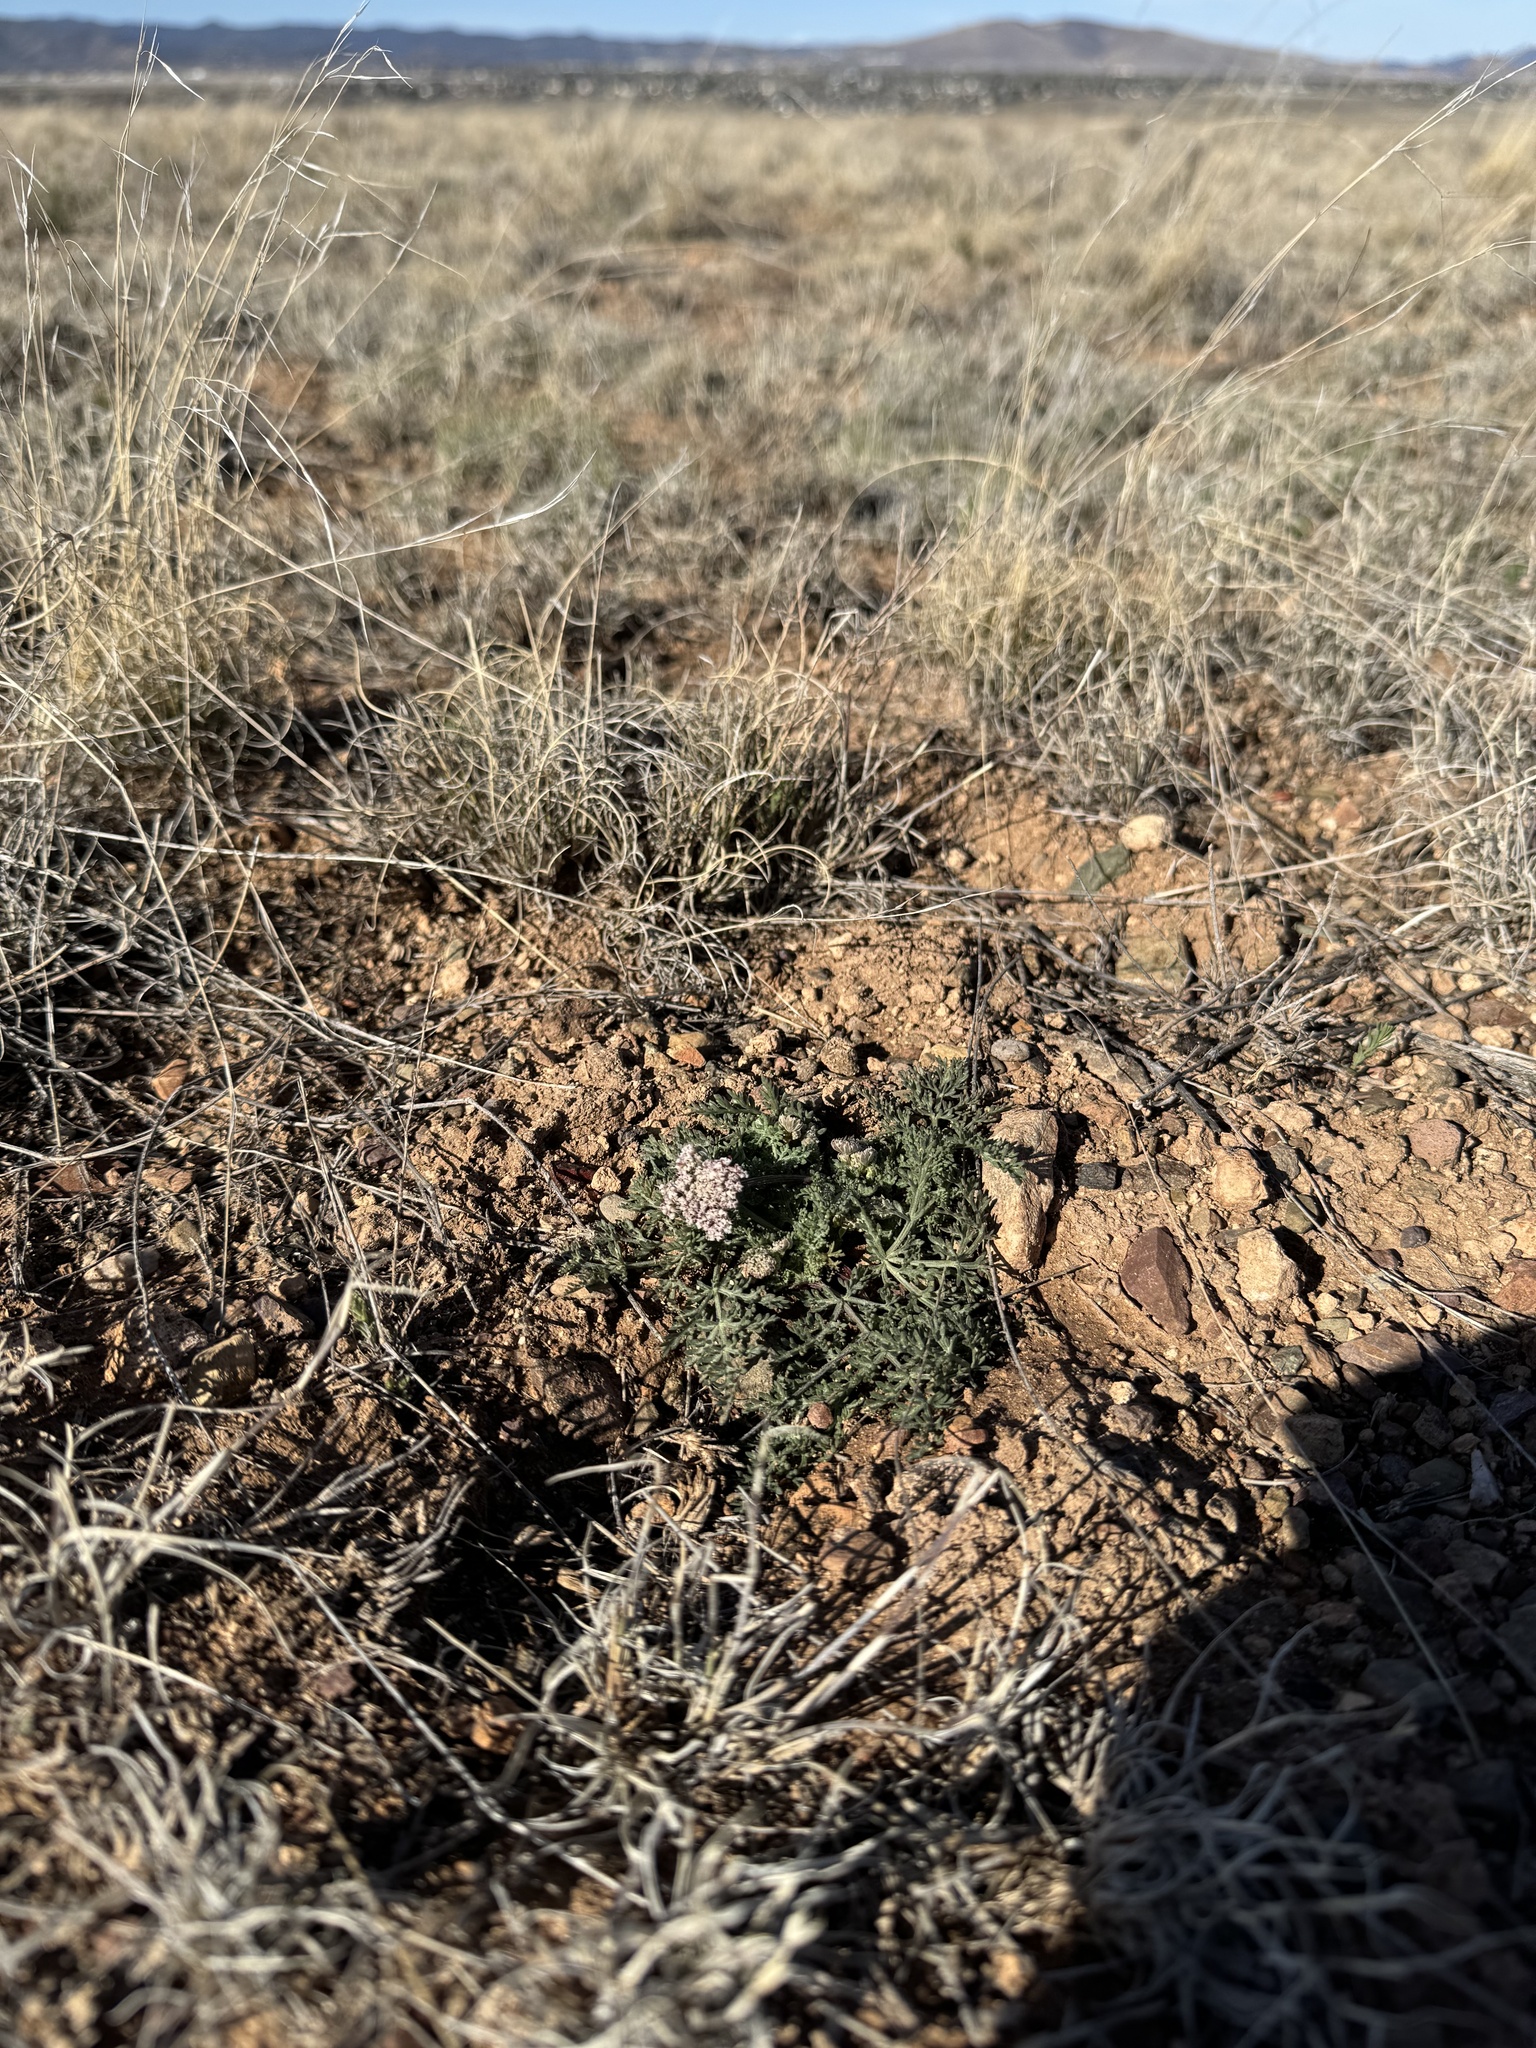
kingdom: Plantae
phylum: Tracheophyta
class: Magnoliopsida
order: Apiales
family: Apiaceae
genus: Lomatium
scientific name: Lomatium nevadense
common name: Nevada lomatium
